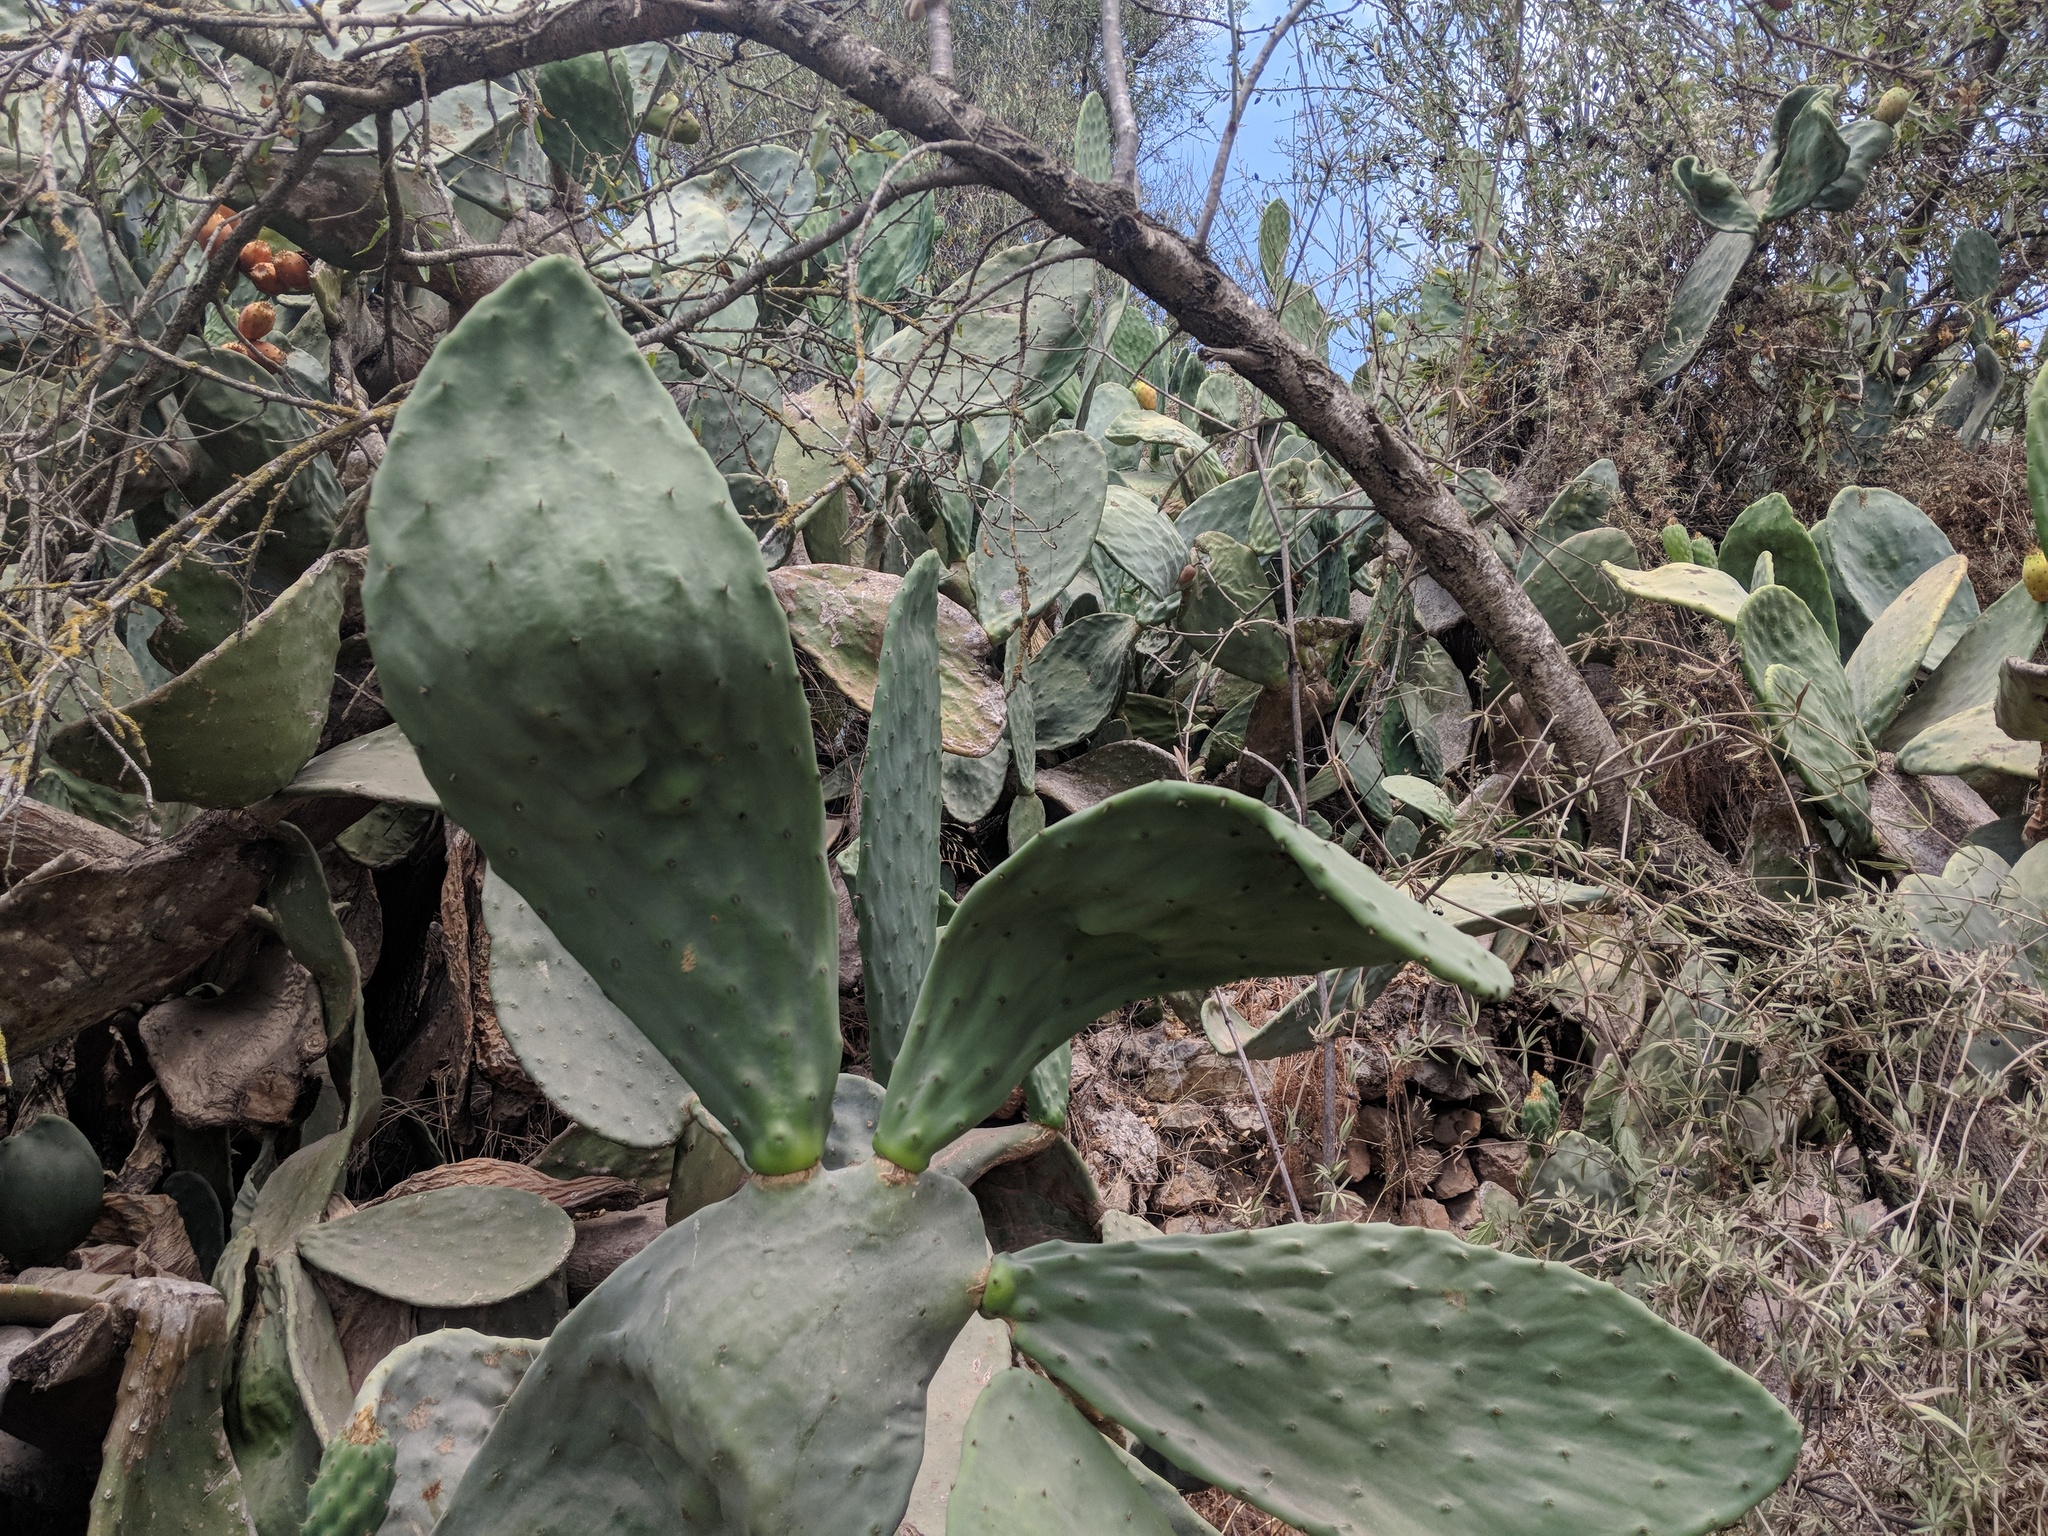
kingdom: Plantae
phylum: Tracheophyta
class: Magnoliopsida
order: Caryophyllales
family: Cactaceae
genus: Opuntia
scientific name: Opuntia ficus-indica
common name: Barbary fig
